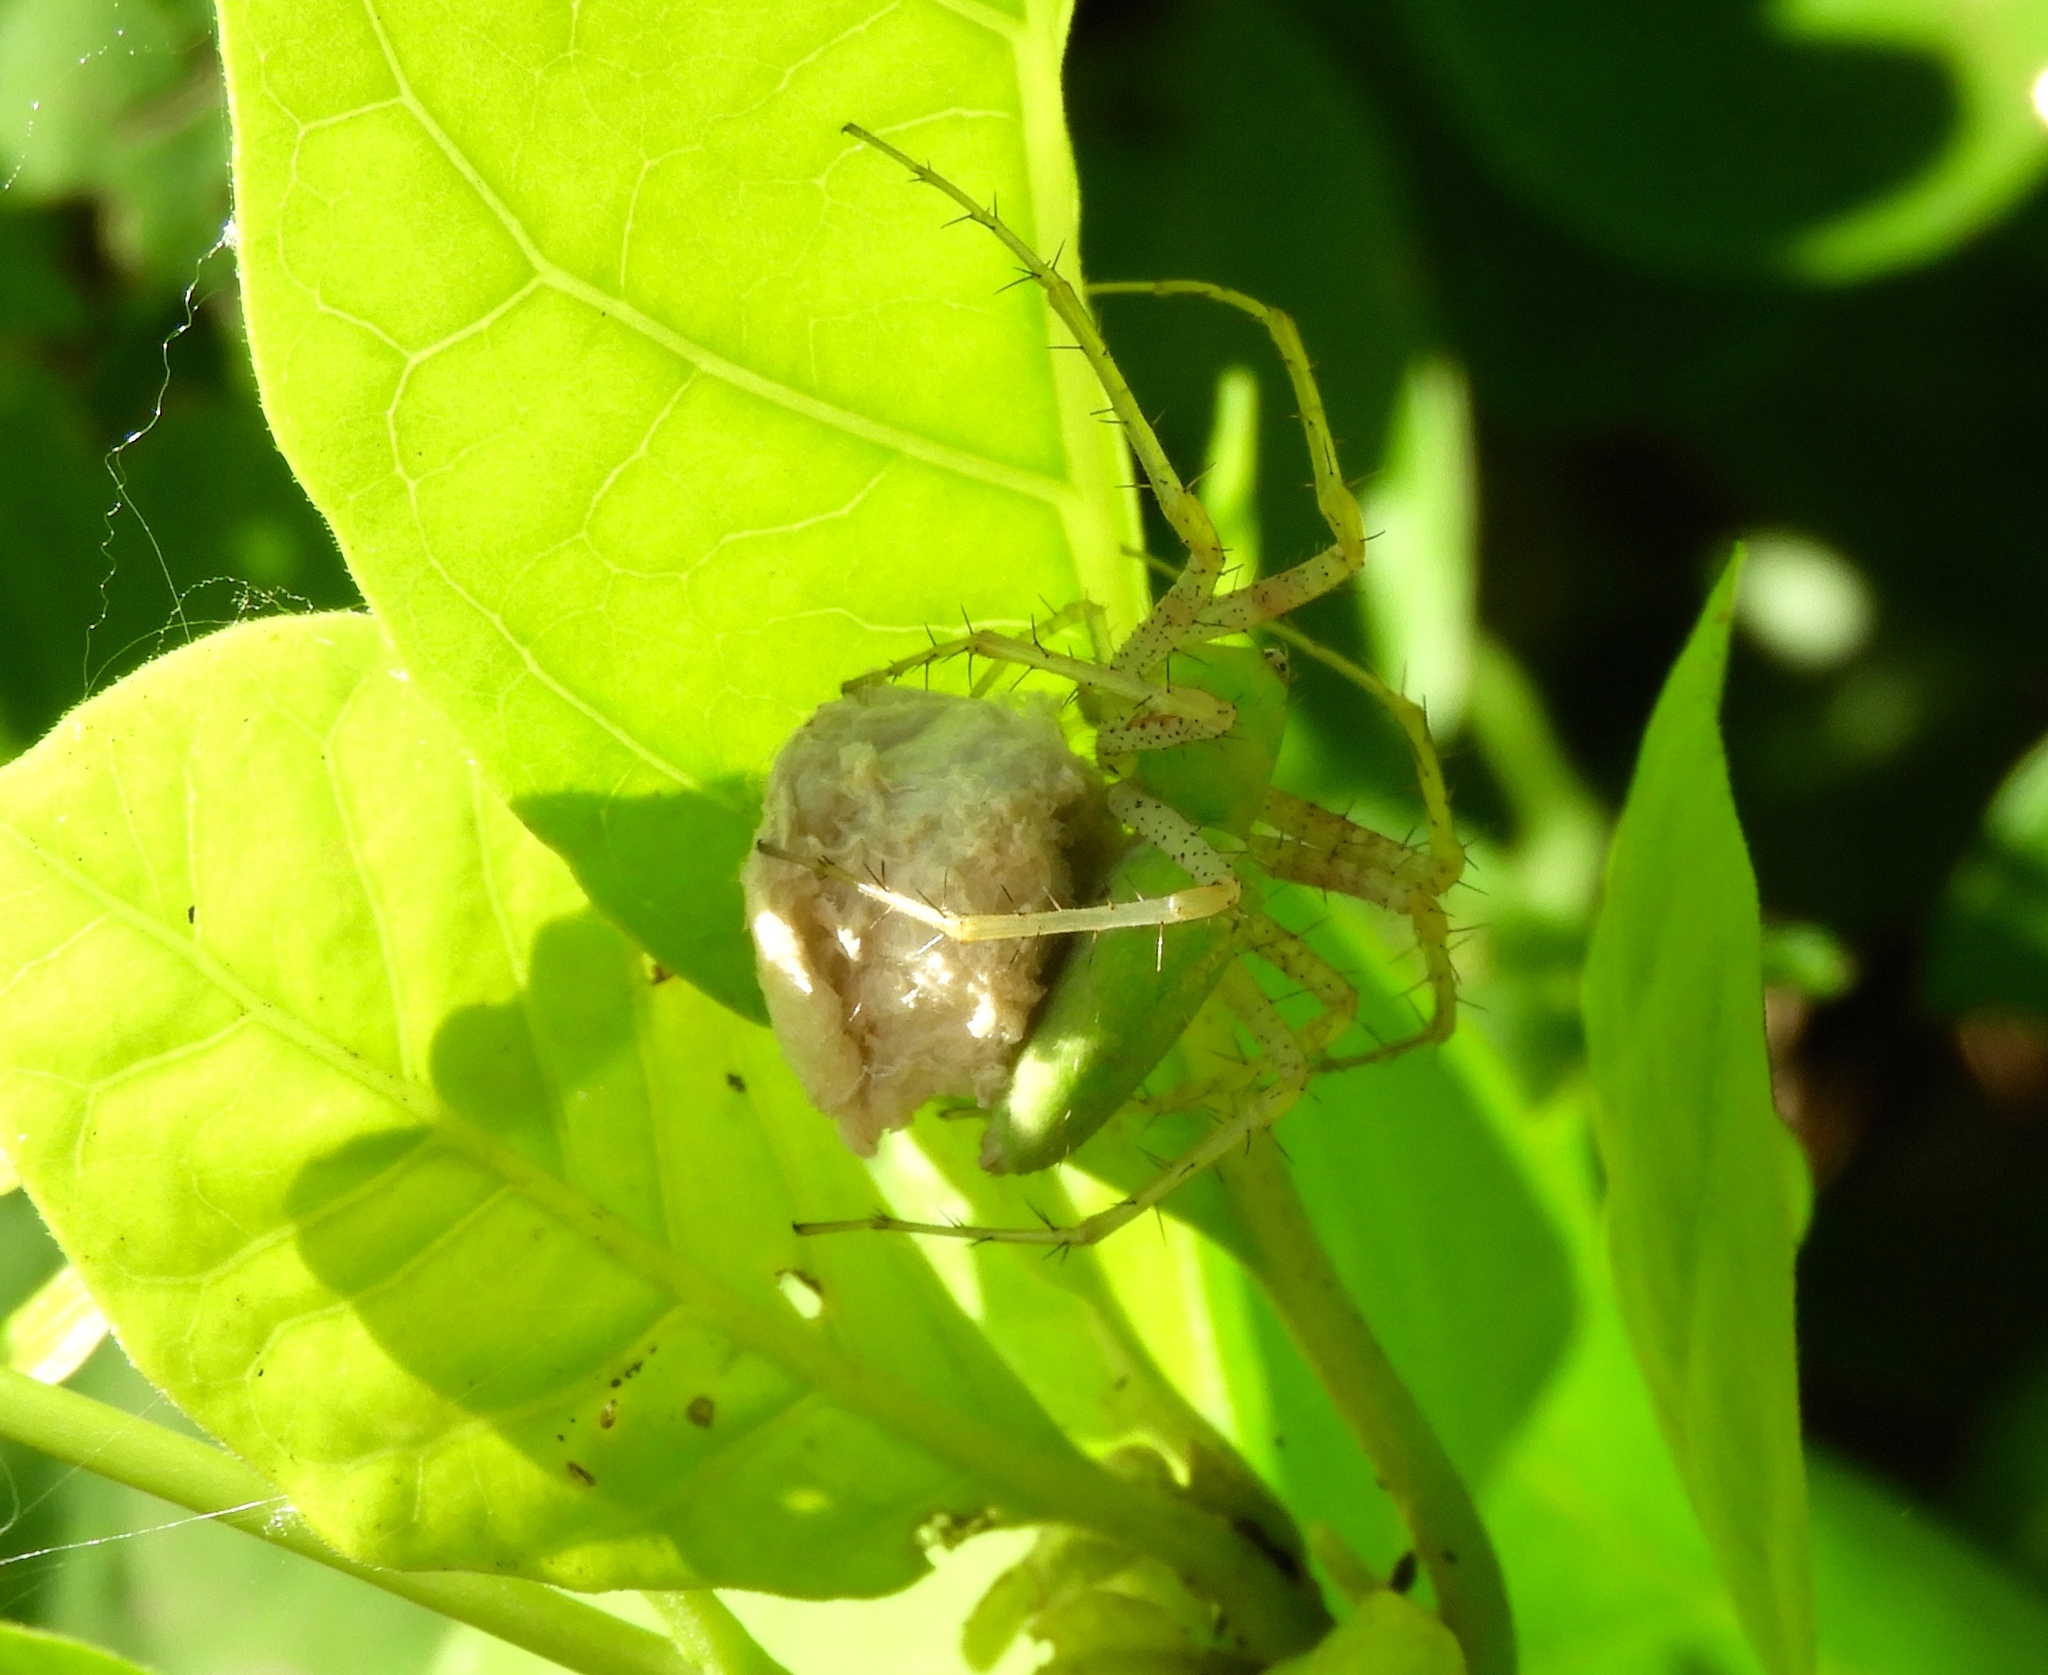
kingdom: Animalia
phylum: Arthropoda
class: Arachnida
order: Araneae
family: Oxyopidae
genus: Peucetia
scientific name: Peucetia
